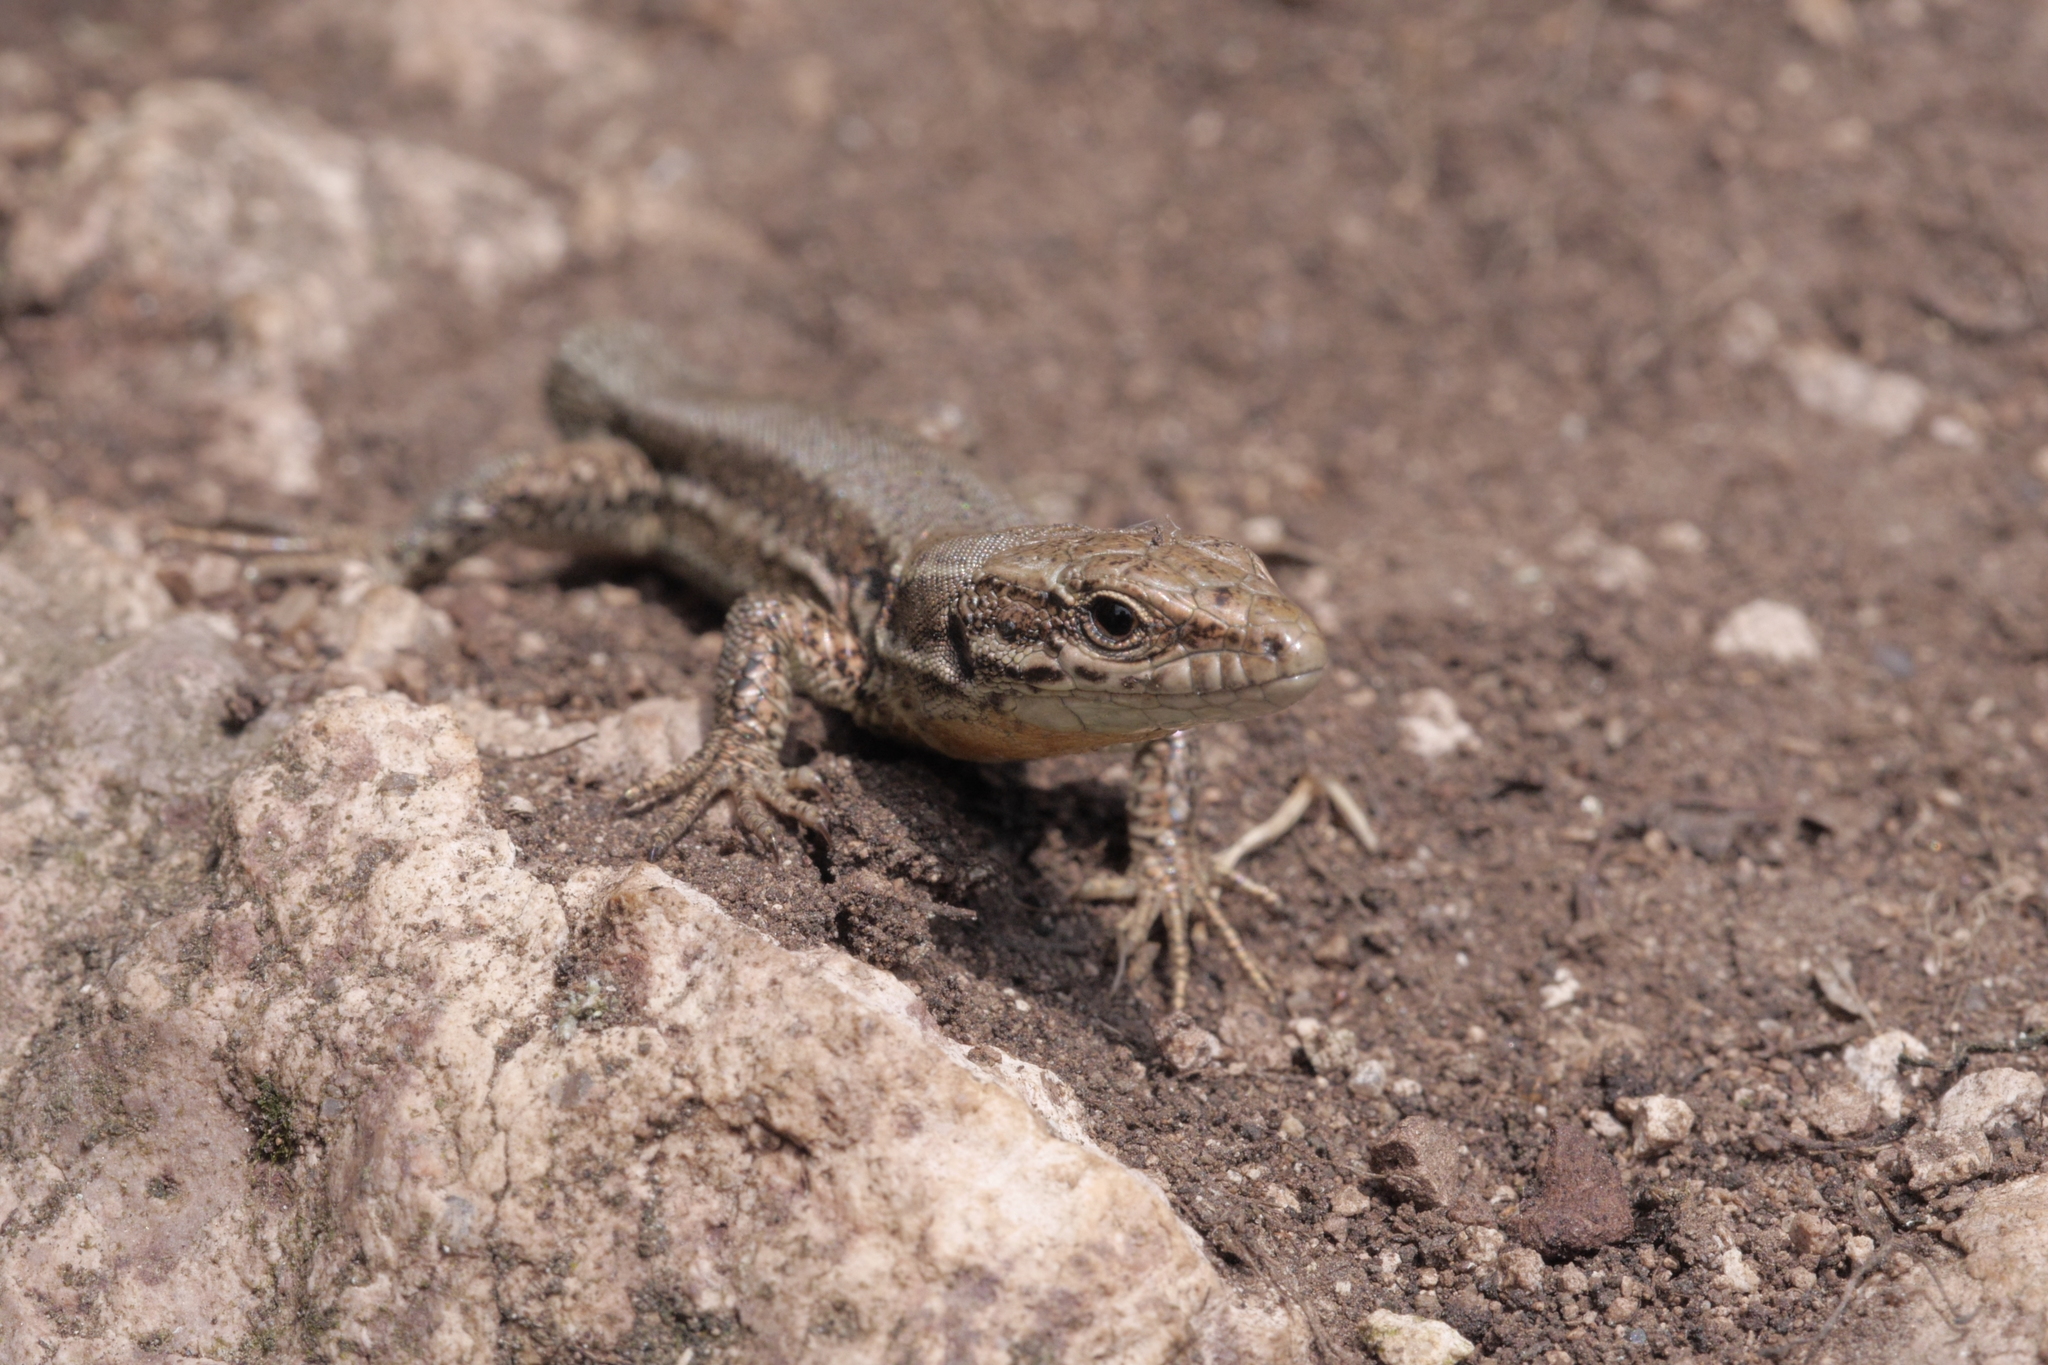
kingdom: Animalia
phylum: Chordata
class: Squamata
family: Lacertidae
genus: Podarcis
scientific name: Podarcis muralis
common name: Common wall lizard
